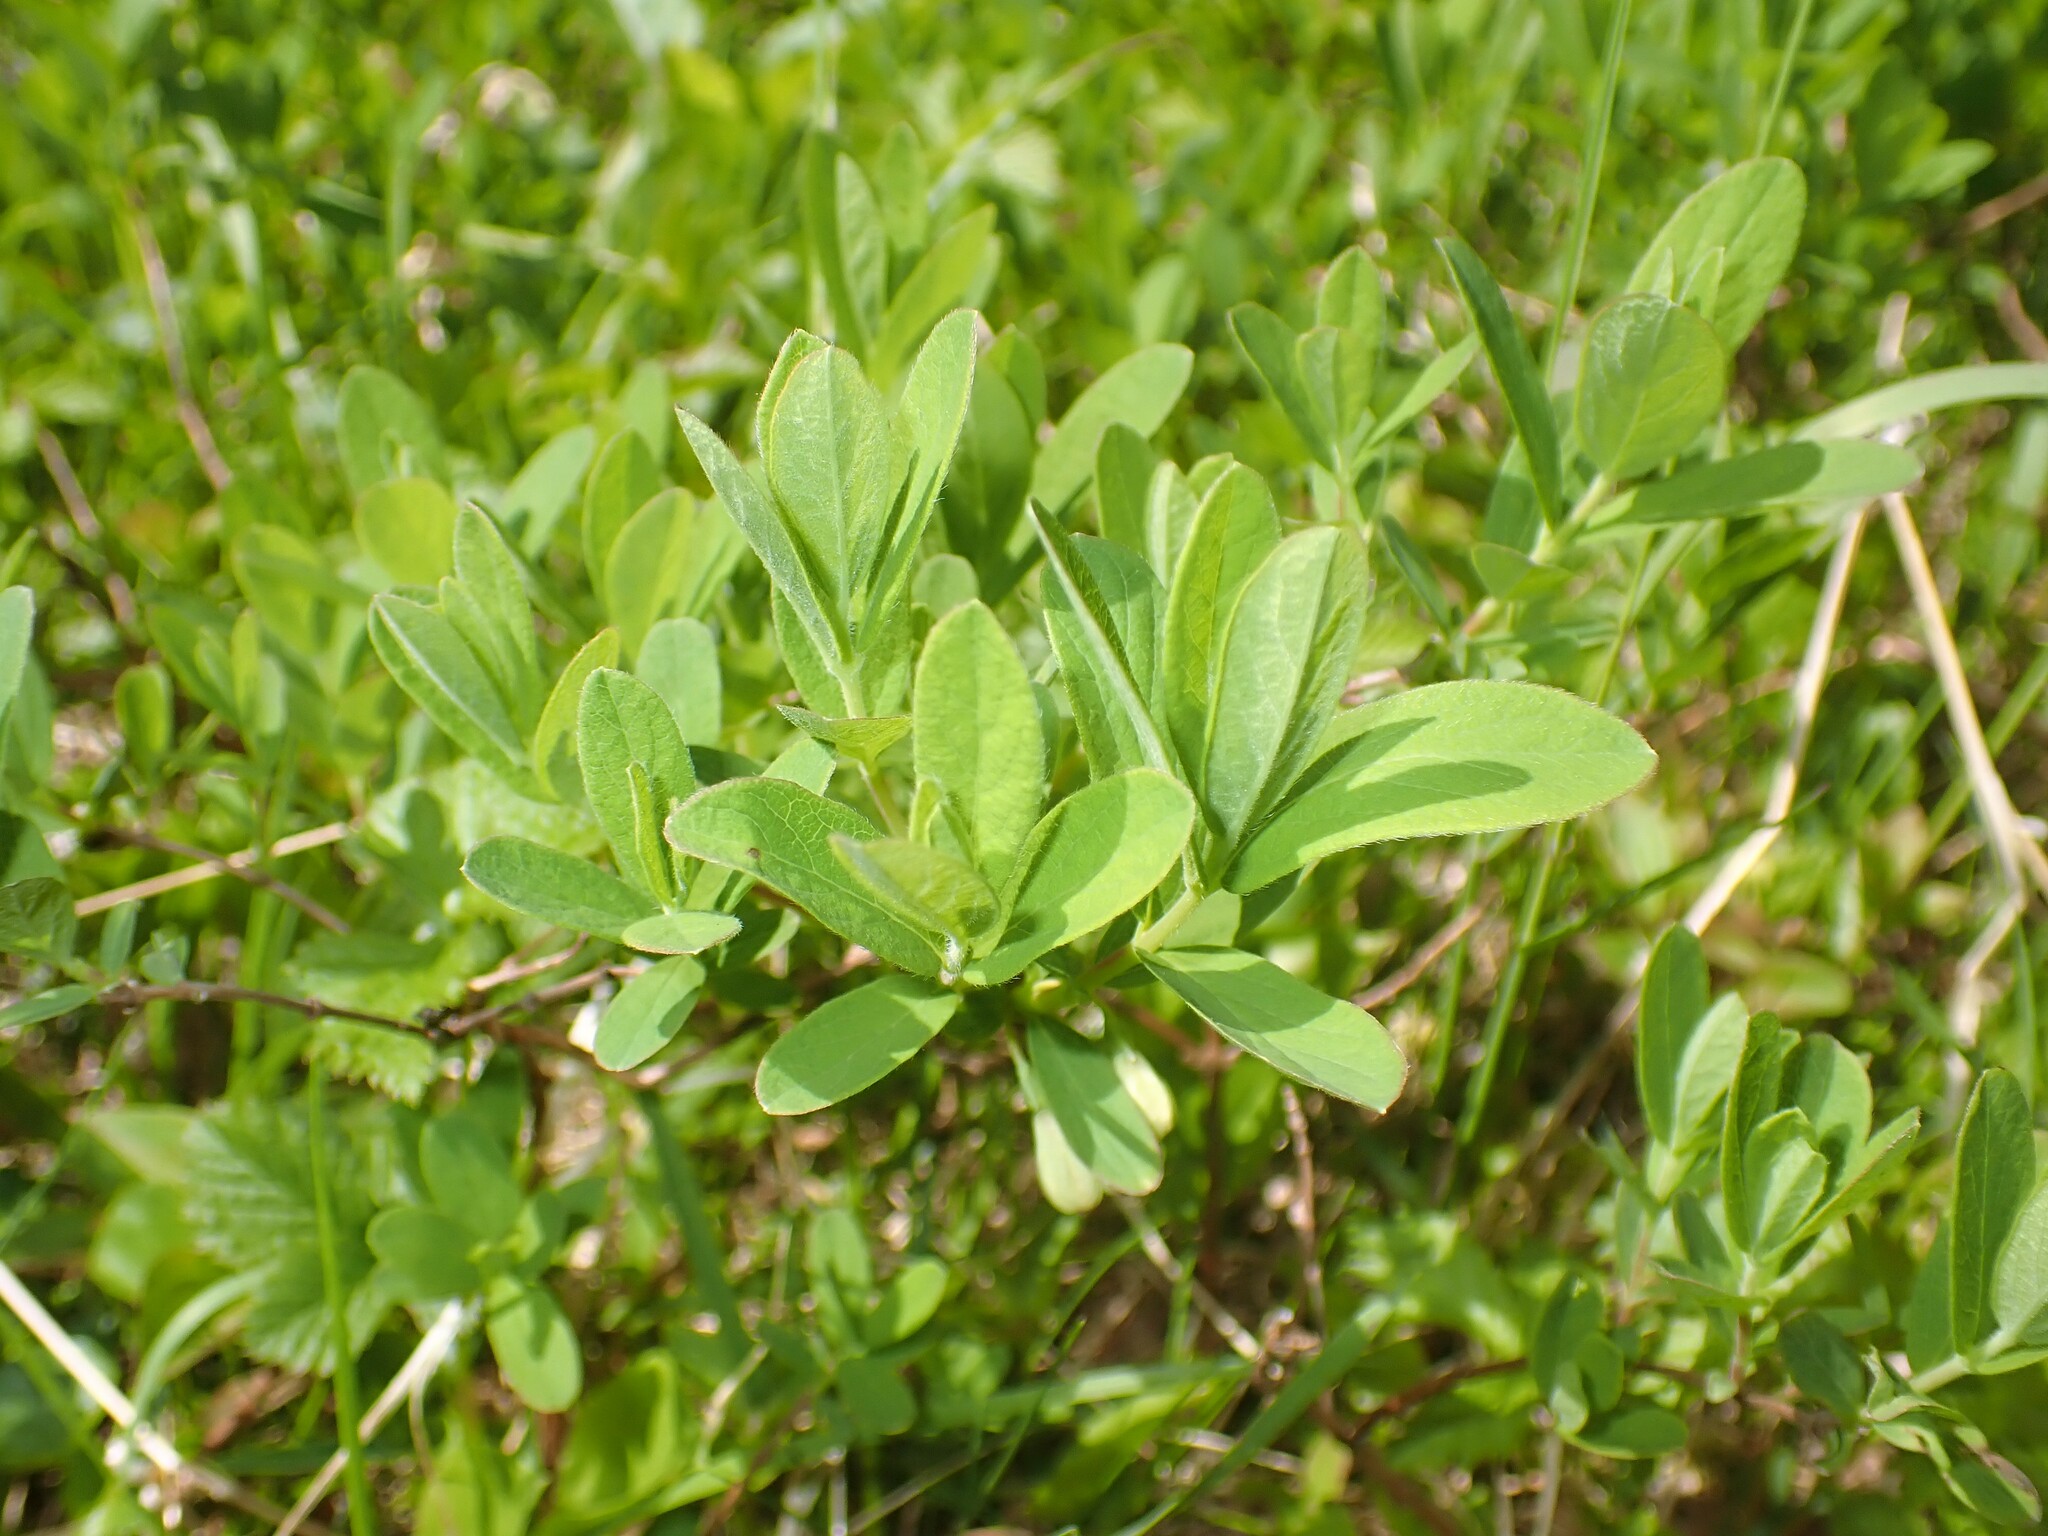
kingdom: Plantae
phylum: Tracheophyta
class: Magnoliopsida
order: Dipsacales
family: Caprifoliaceae
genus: Lonicera
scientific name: Lonicera villosa
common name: Mountain fly-honeysuckle
